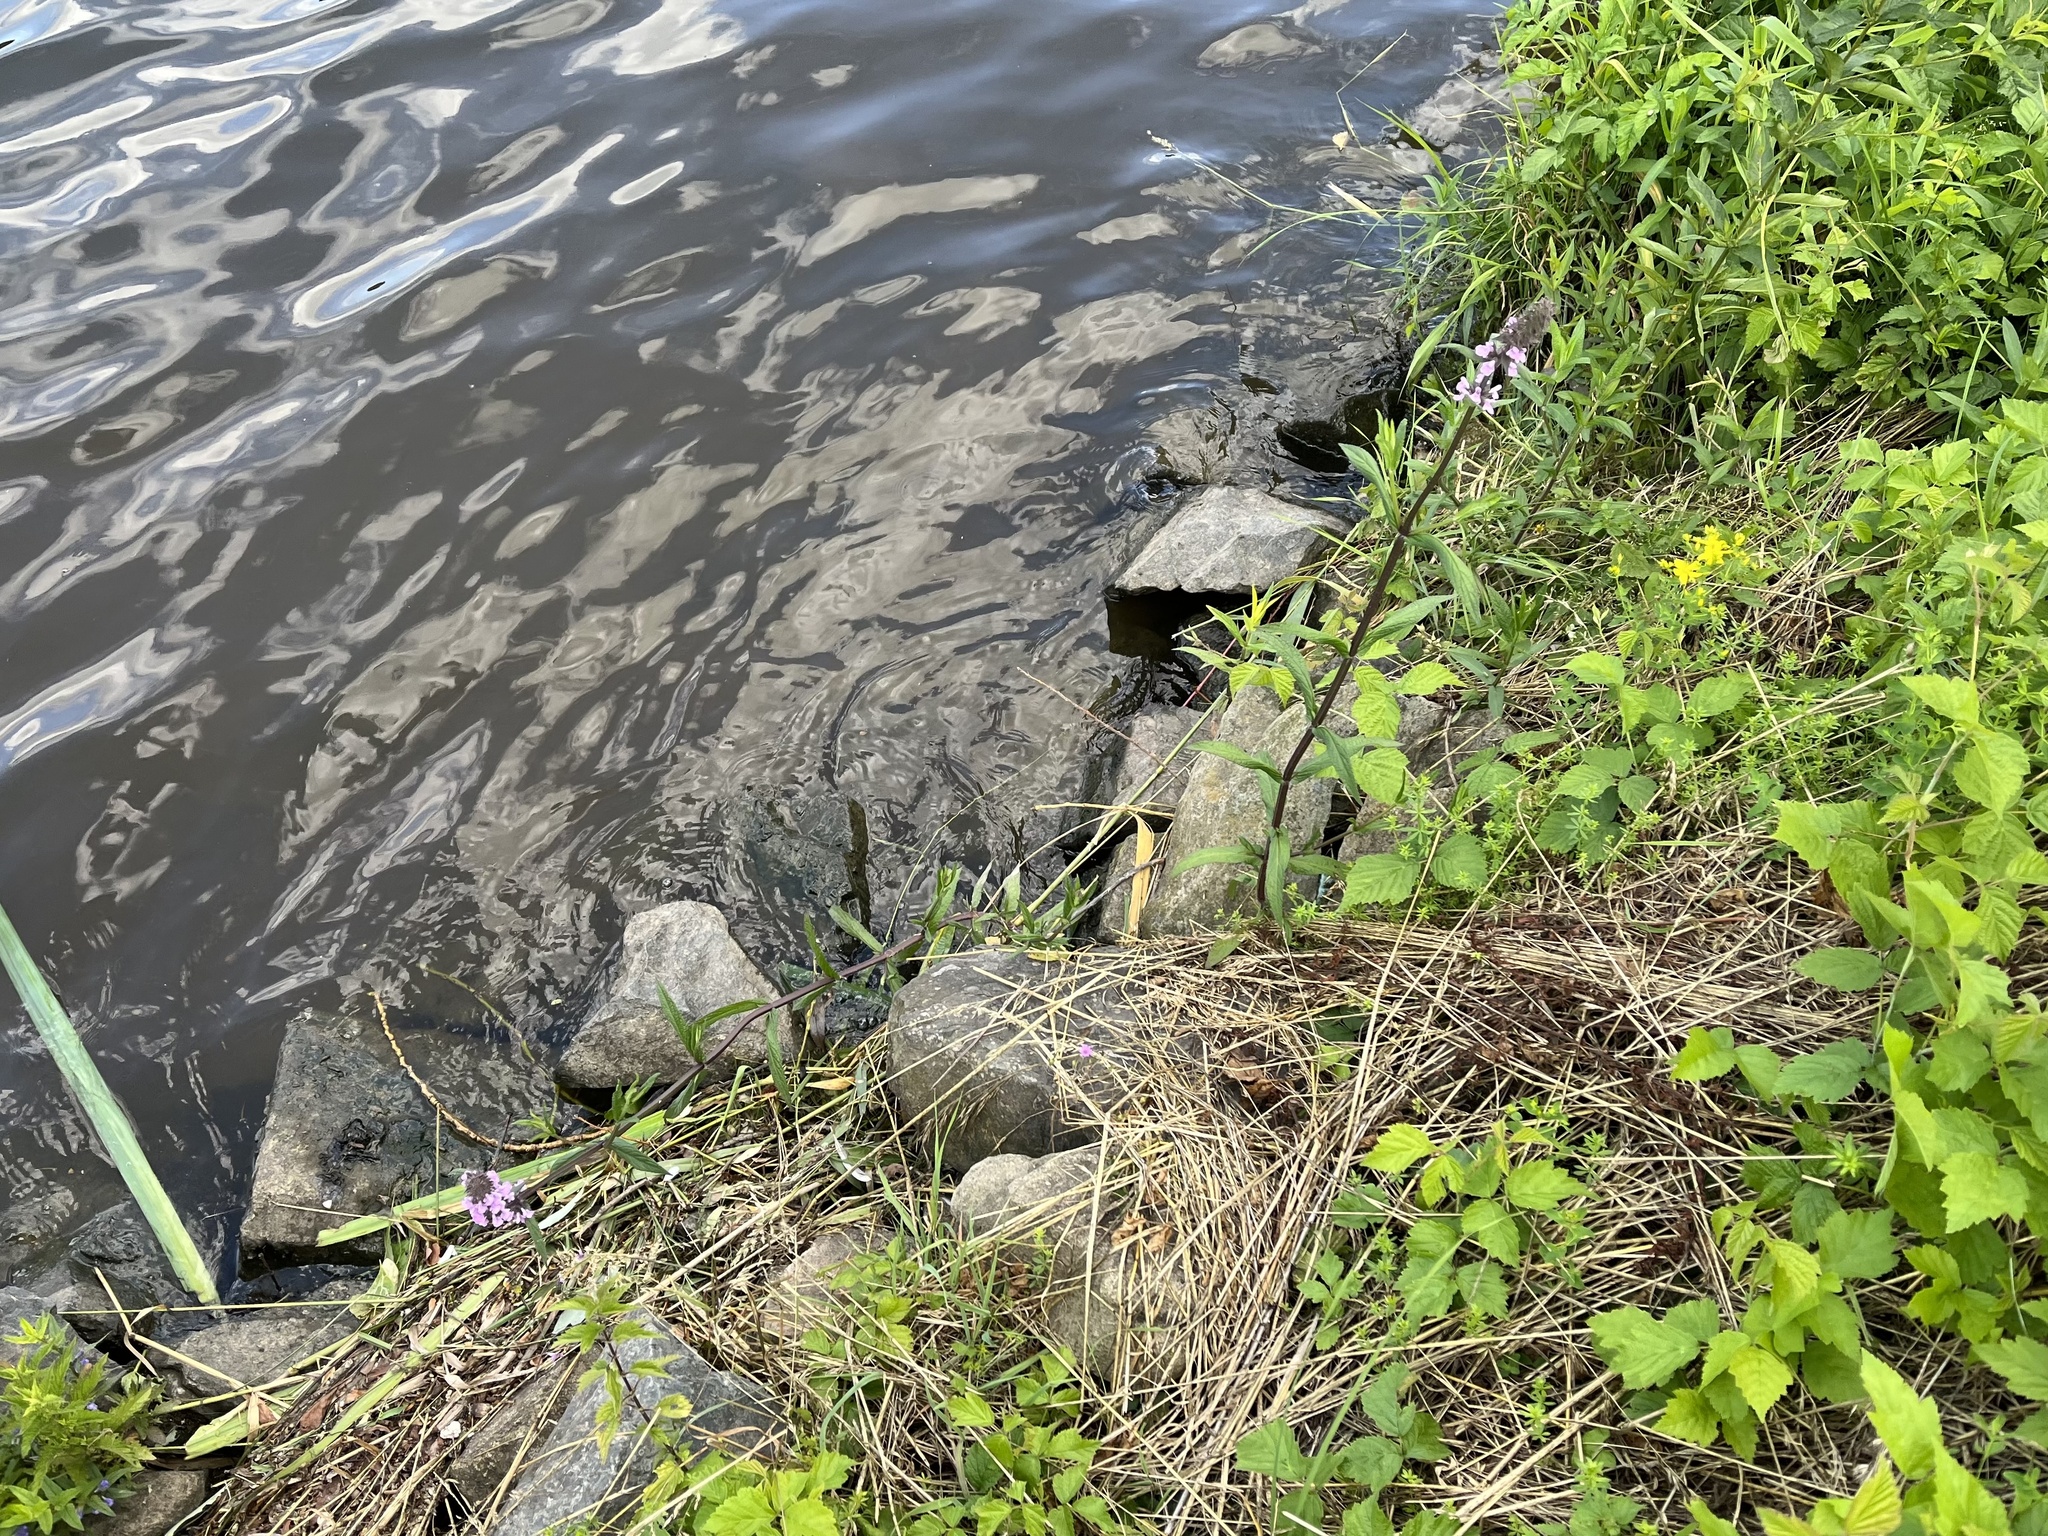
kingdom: Plantae
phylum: Tracheophyta
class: Magnoliopsida
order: Lamiales
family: Lamiaceae
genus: Stachys
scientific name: Stachys palustris
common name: Marsh woundwort
